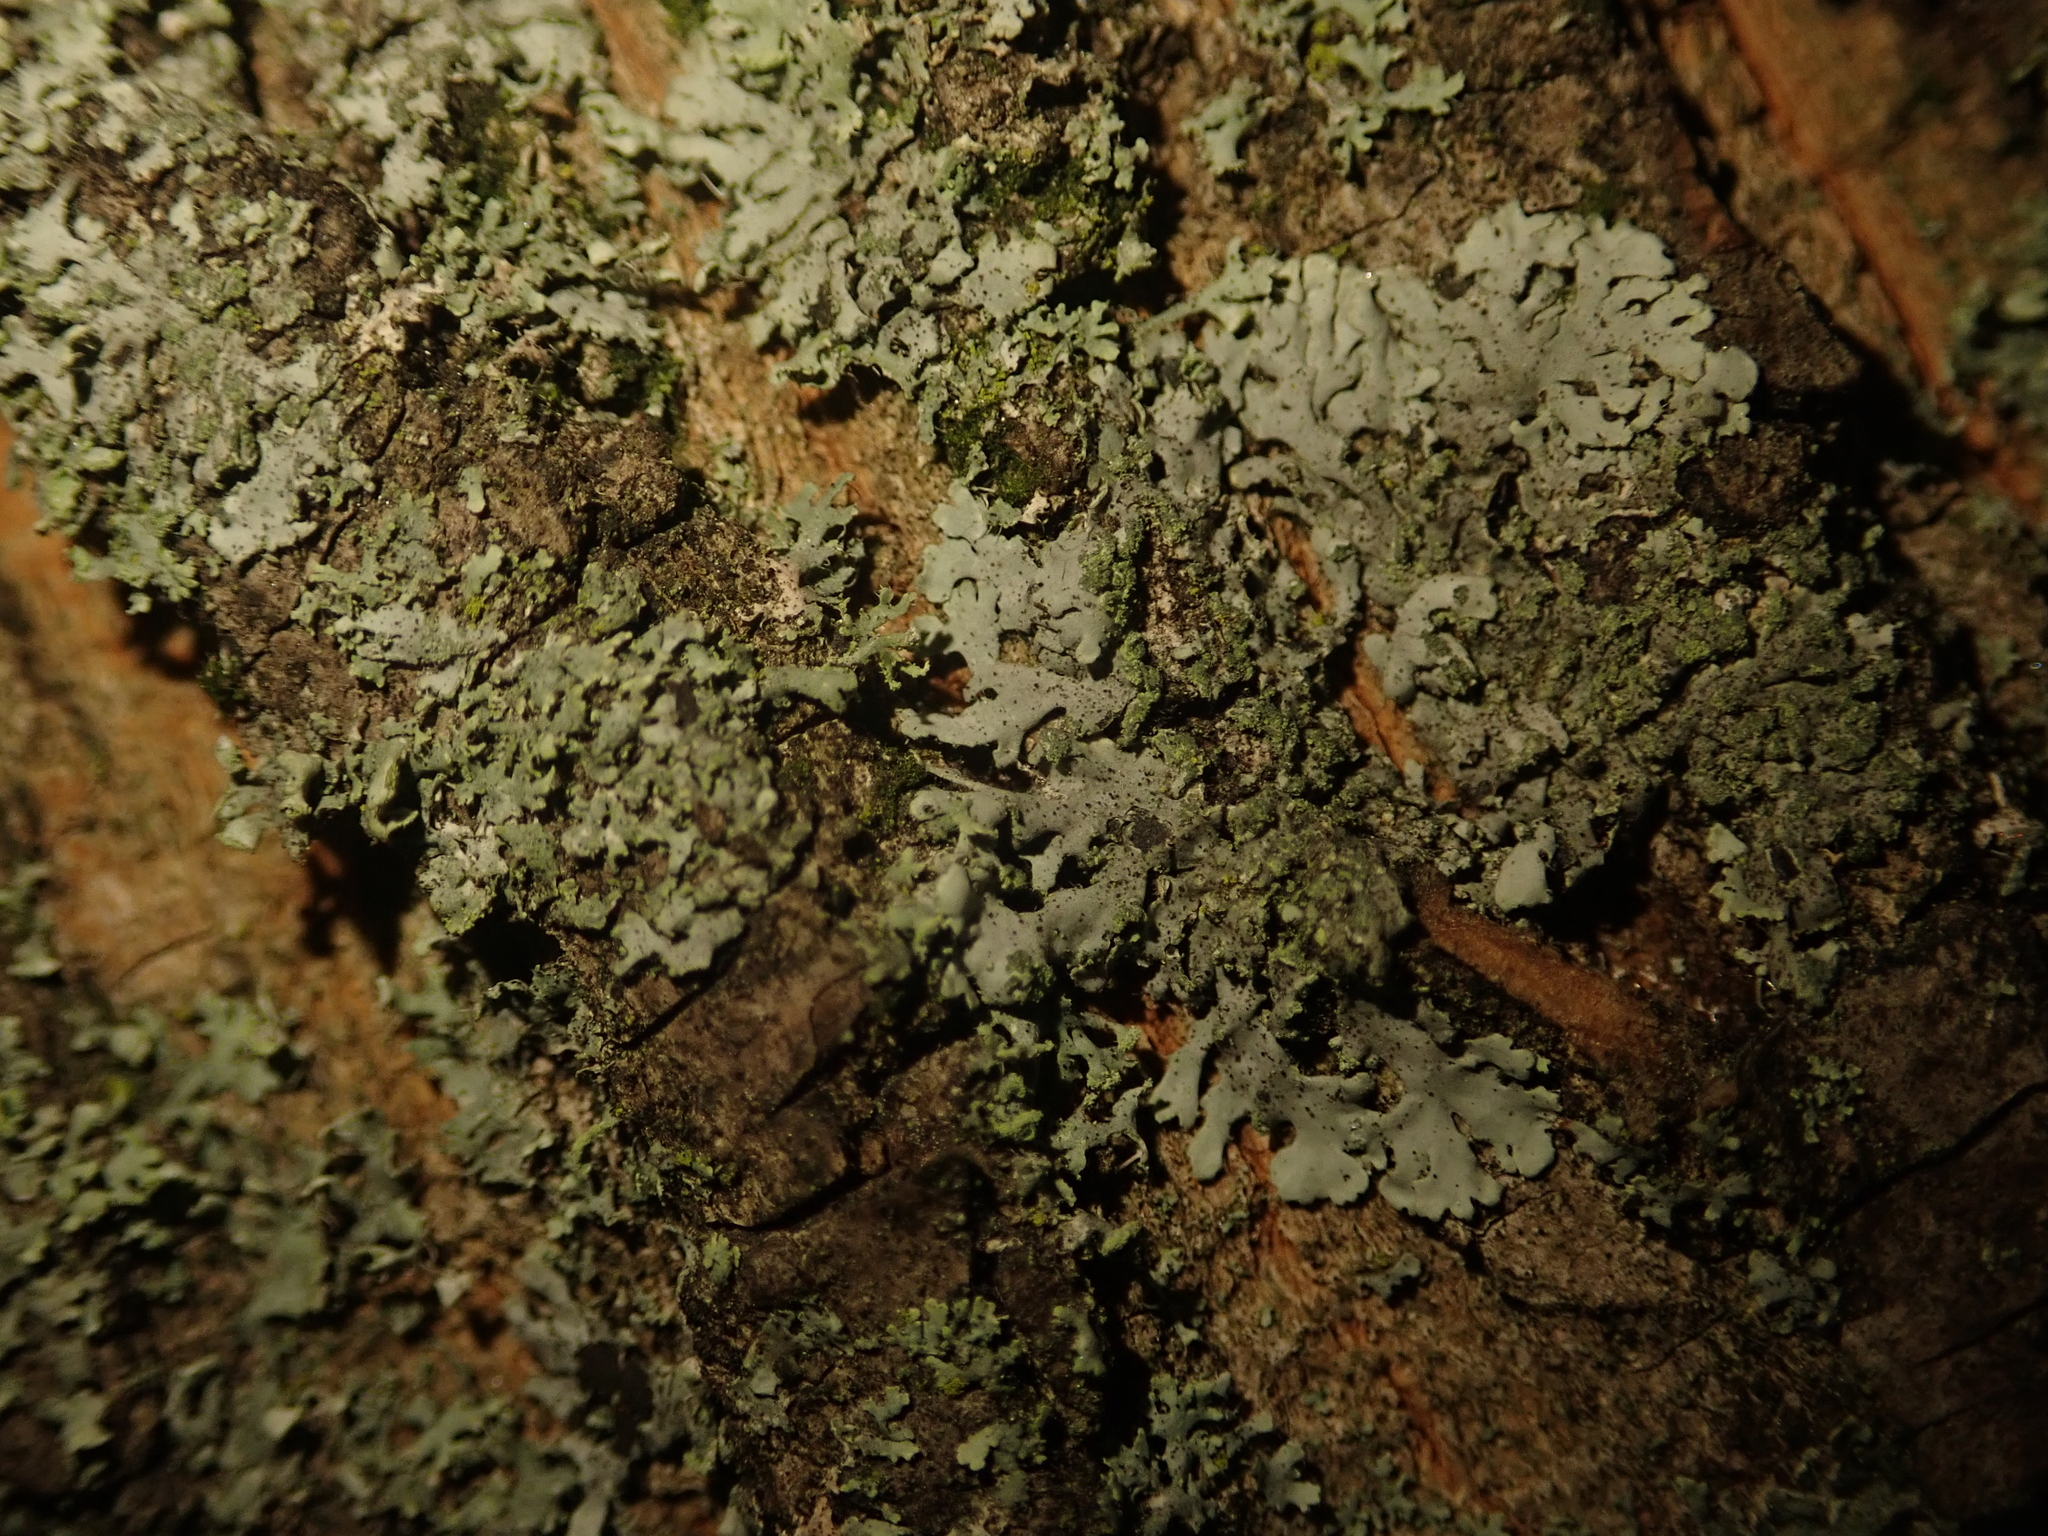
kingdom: Fungi
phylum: Ascomycota
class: Lecanoromycetes
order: Caliciales
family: Physciaceae
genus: Phaeophyscia
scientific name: Phaeophyscia orbicularis
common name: Mealy shadow lichen
